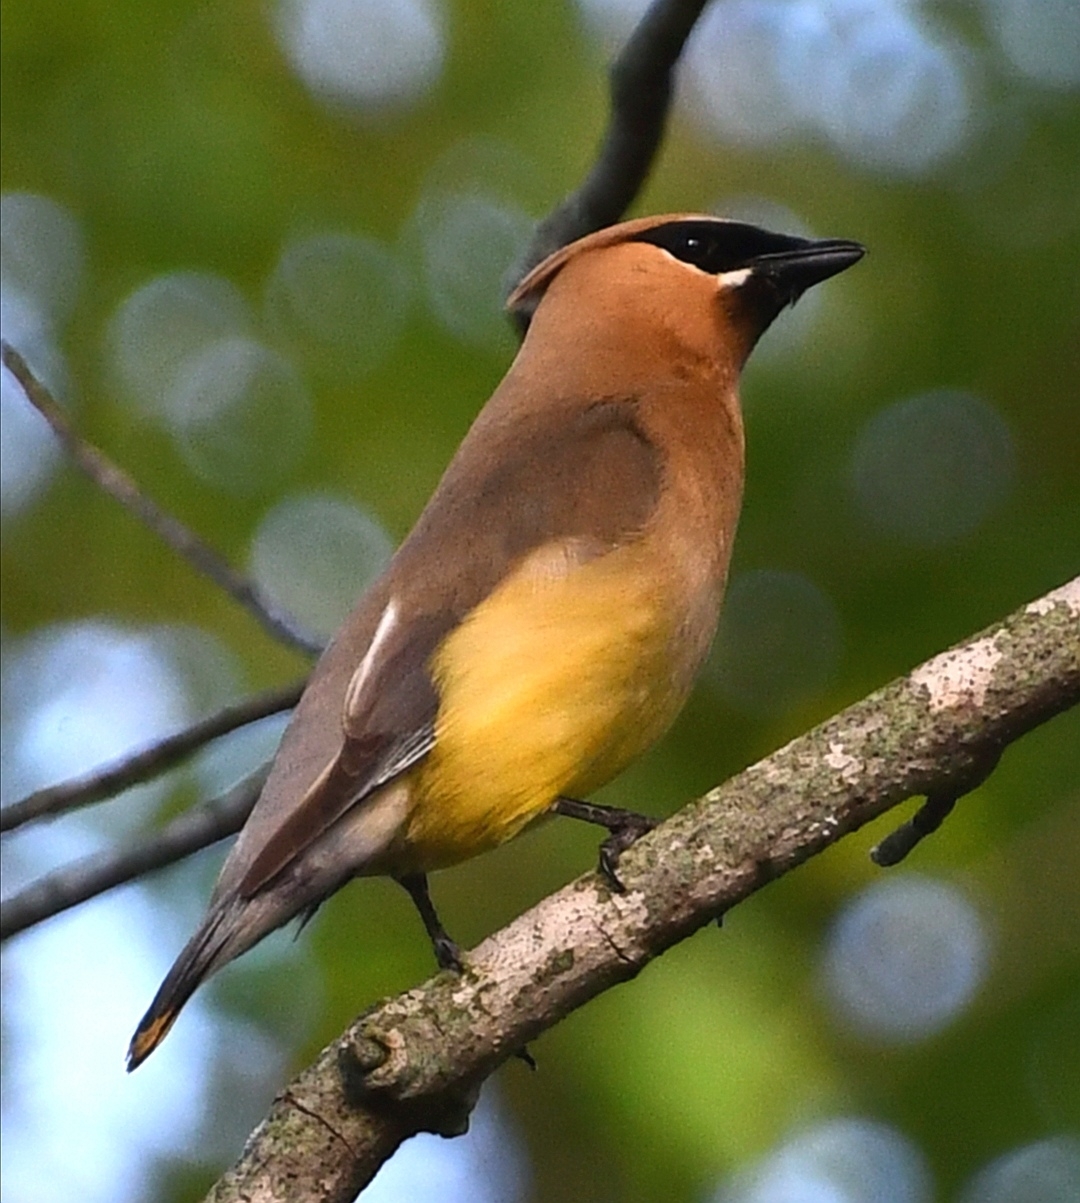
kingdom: Animalia
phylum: Chordata
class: Aves
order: Passeriformes
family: Bombycillidae
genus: Bombycilla
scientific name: Bombycilla cedrorum
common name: Cedar waxwing
